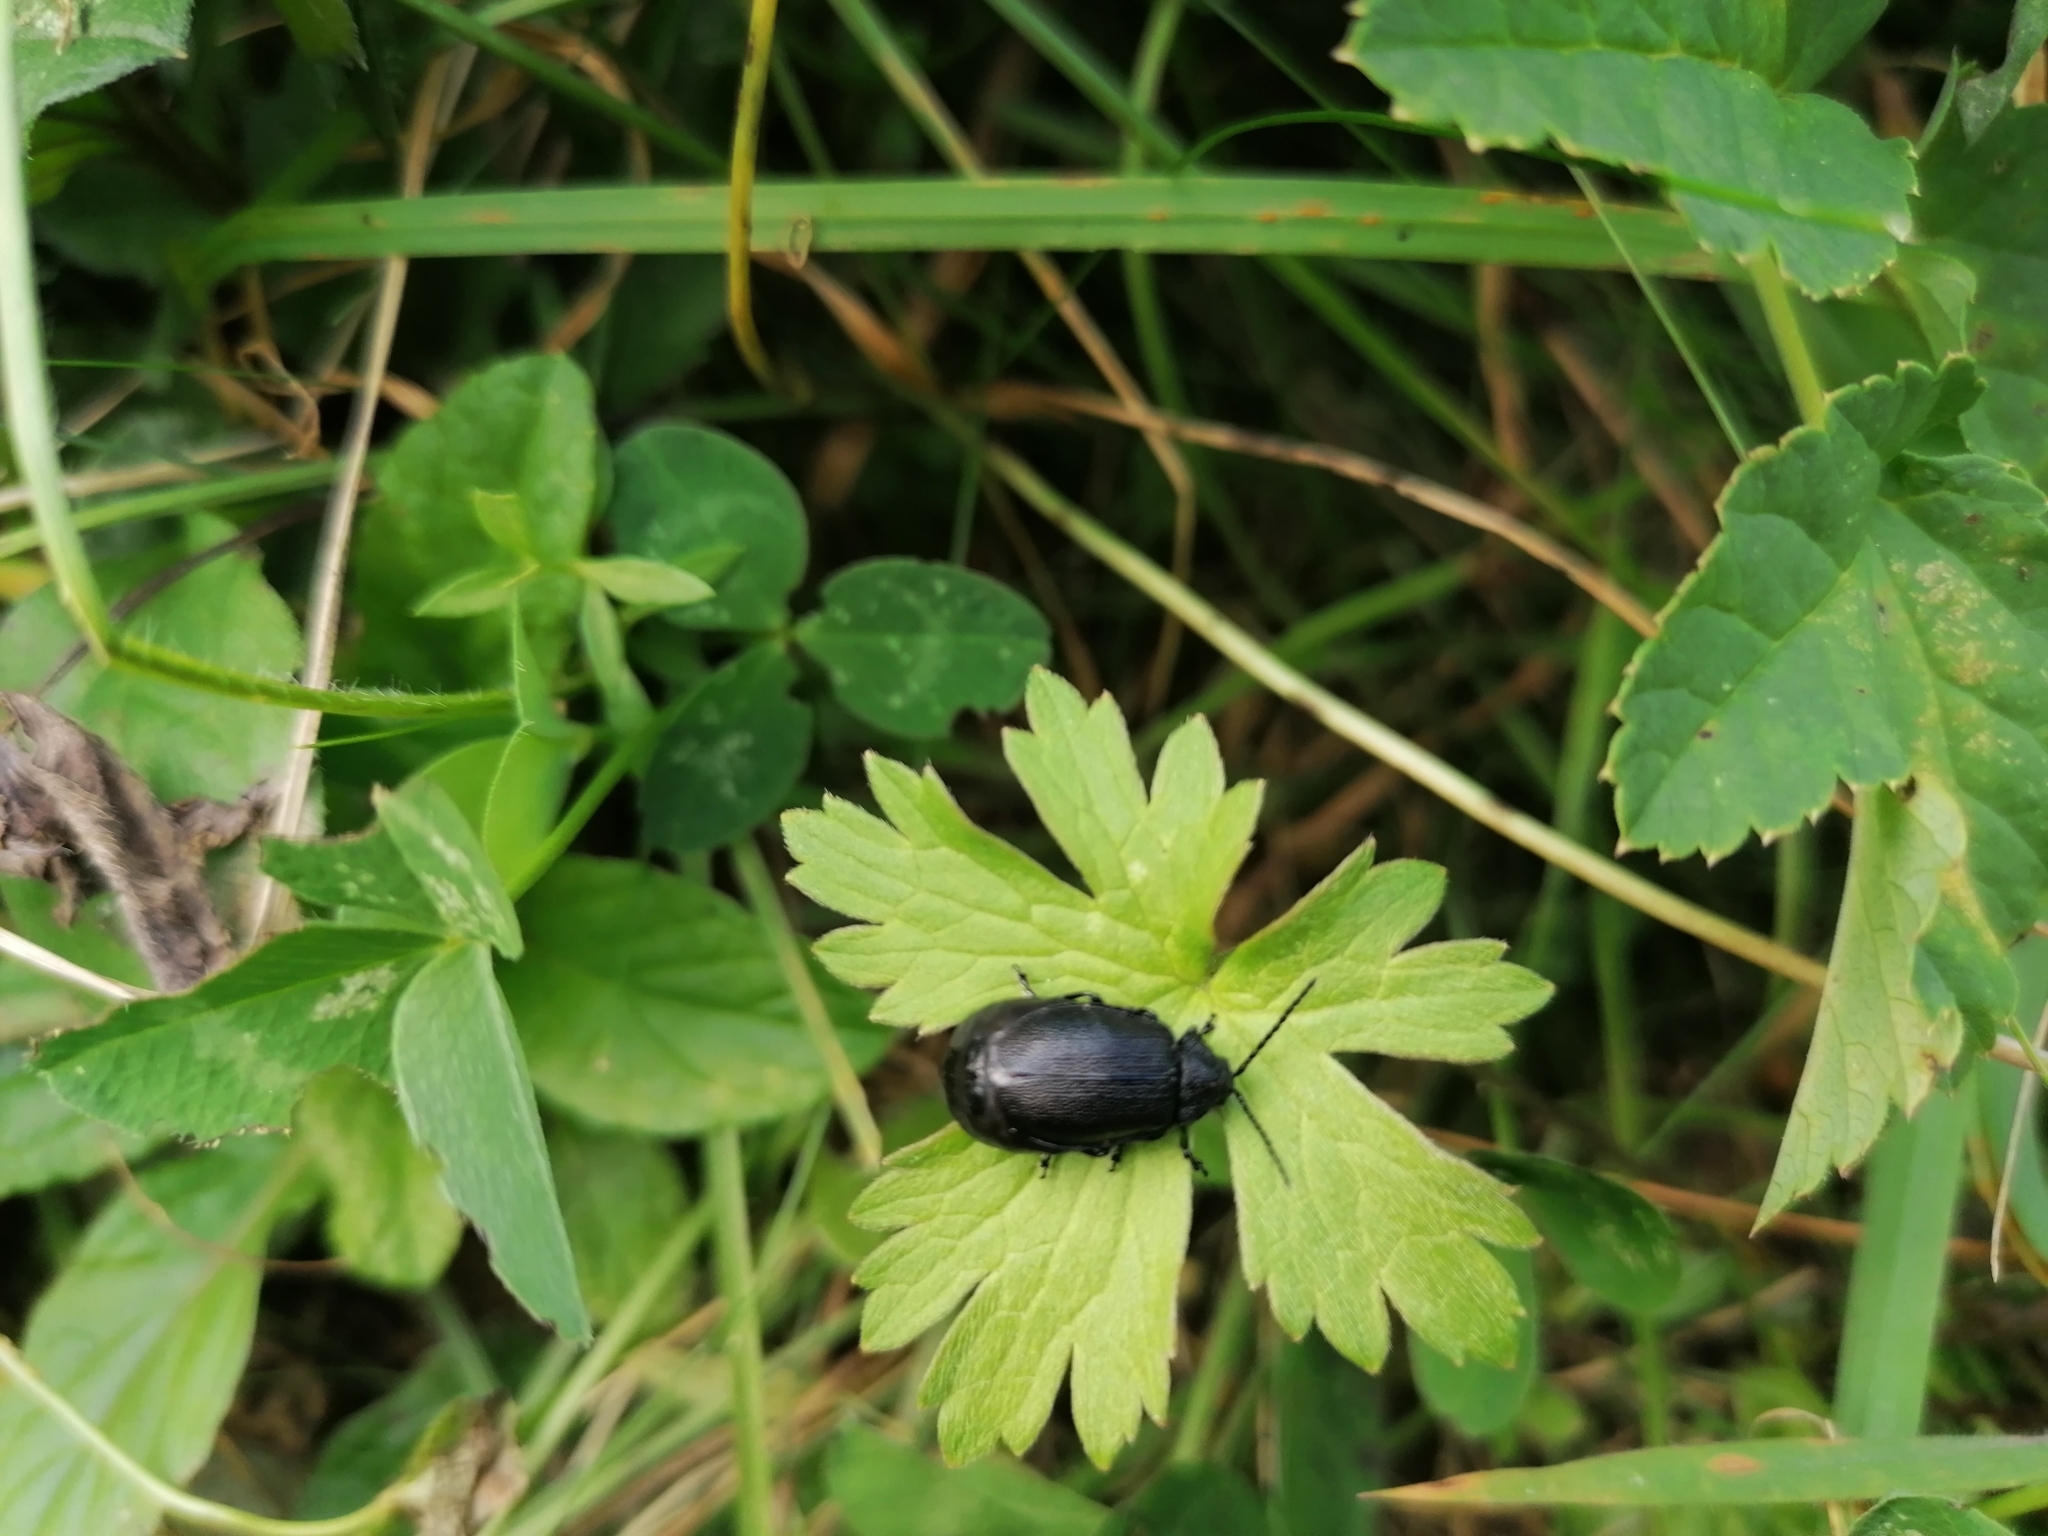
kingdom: Animalia
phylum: Arthropoda
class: Insecta
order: Coleoptera
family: Chrysomelidae
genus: Galeruca
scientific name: Galeruca tanaceti
